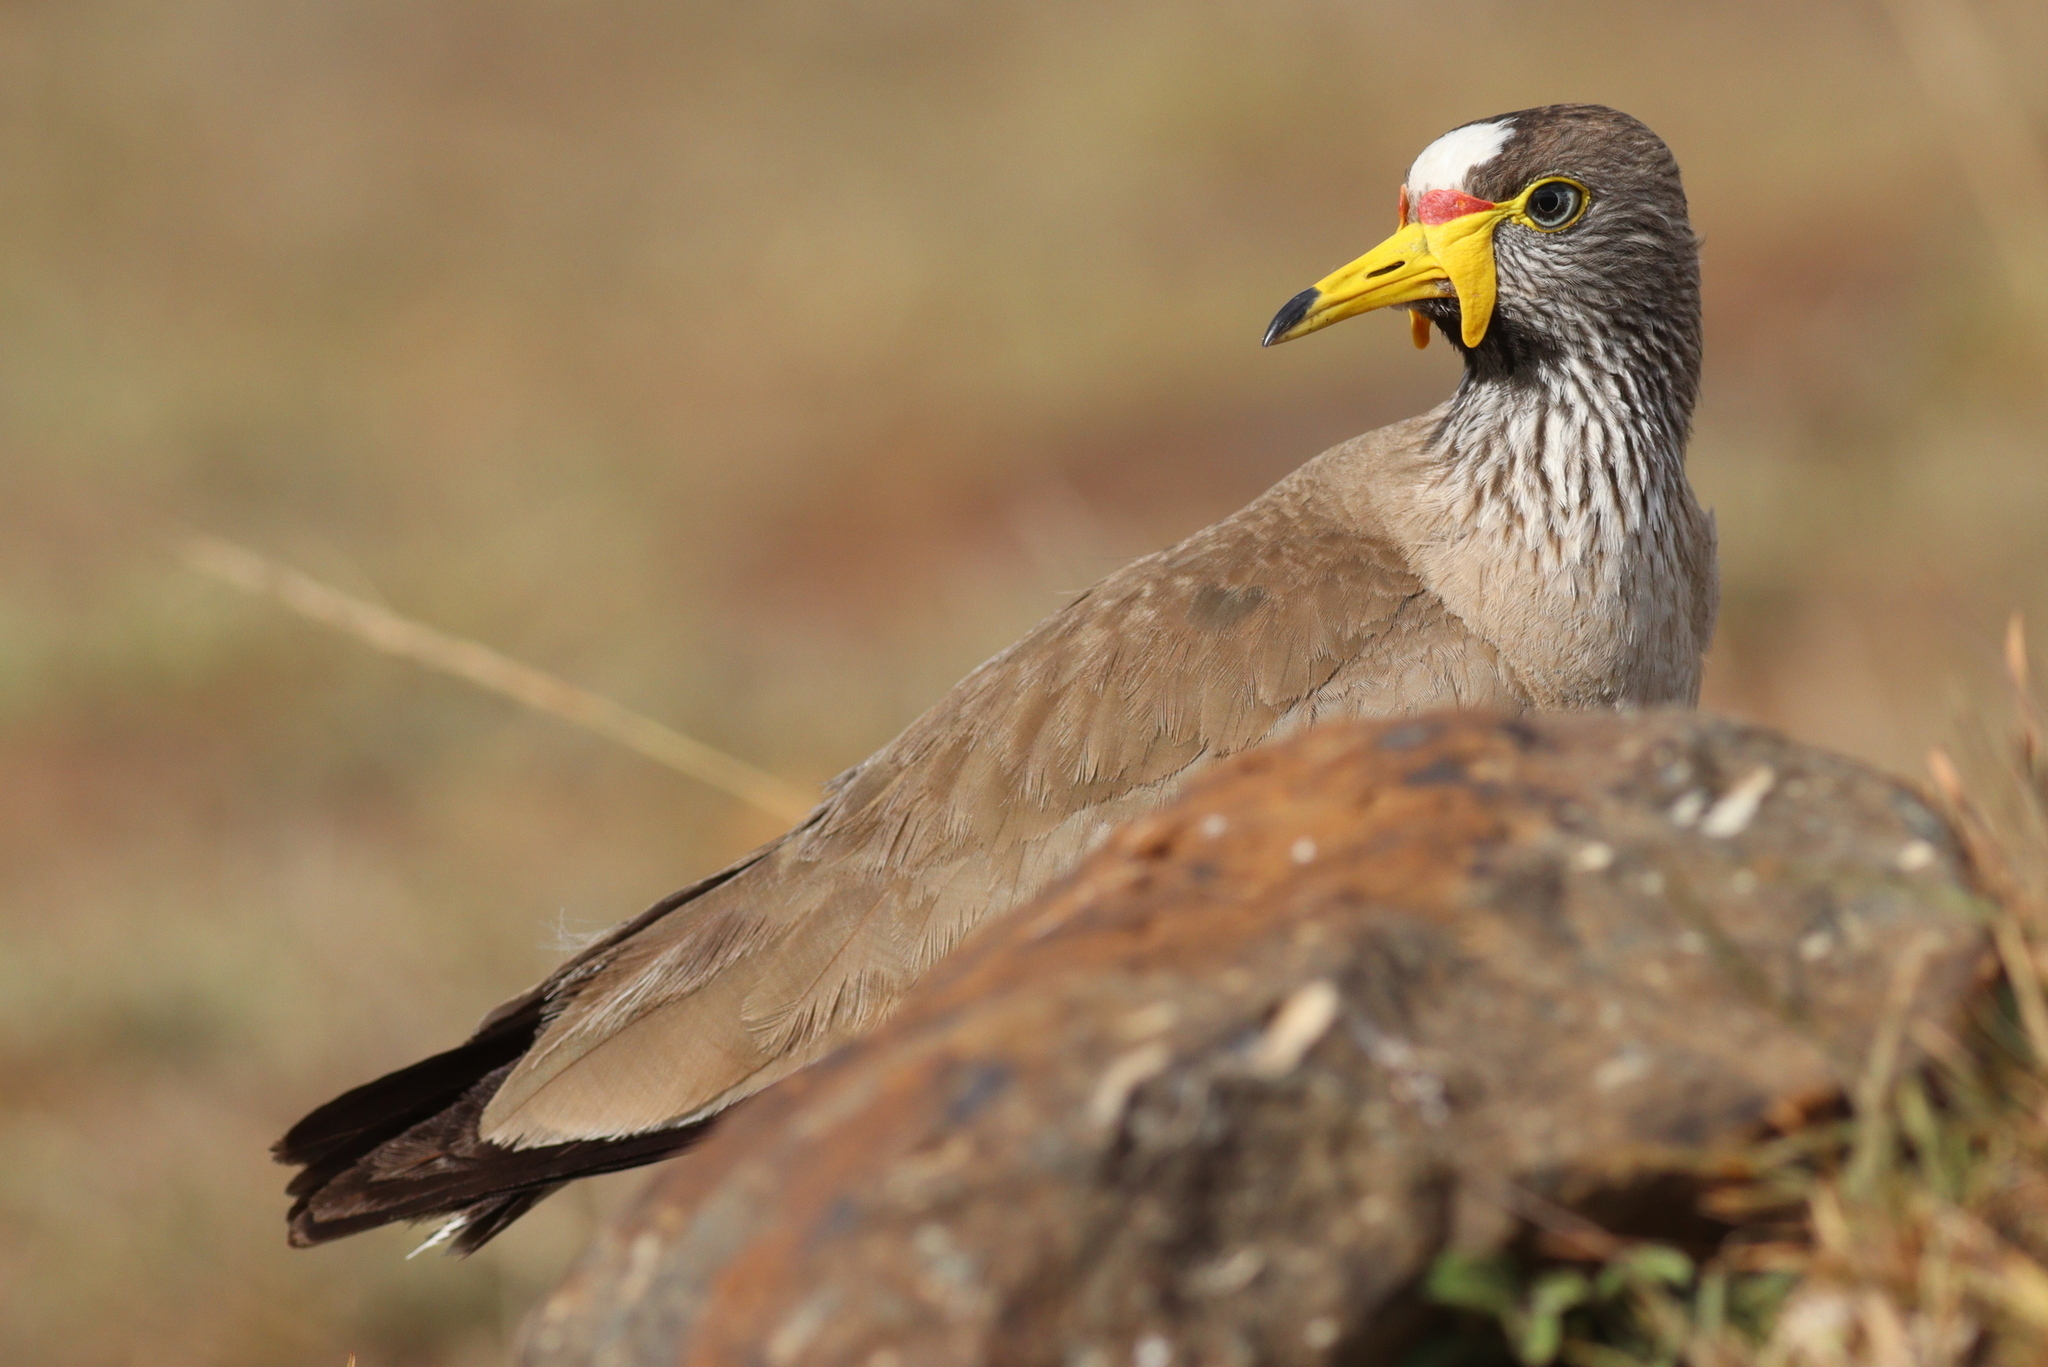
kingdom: Animalia
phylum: Chordata
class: Aves
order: Charadriiformes
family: Charadriidae
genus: Vanellus
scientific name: Vanellus senegallus
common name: African wattled lapwing
